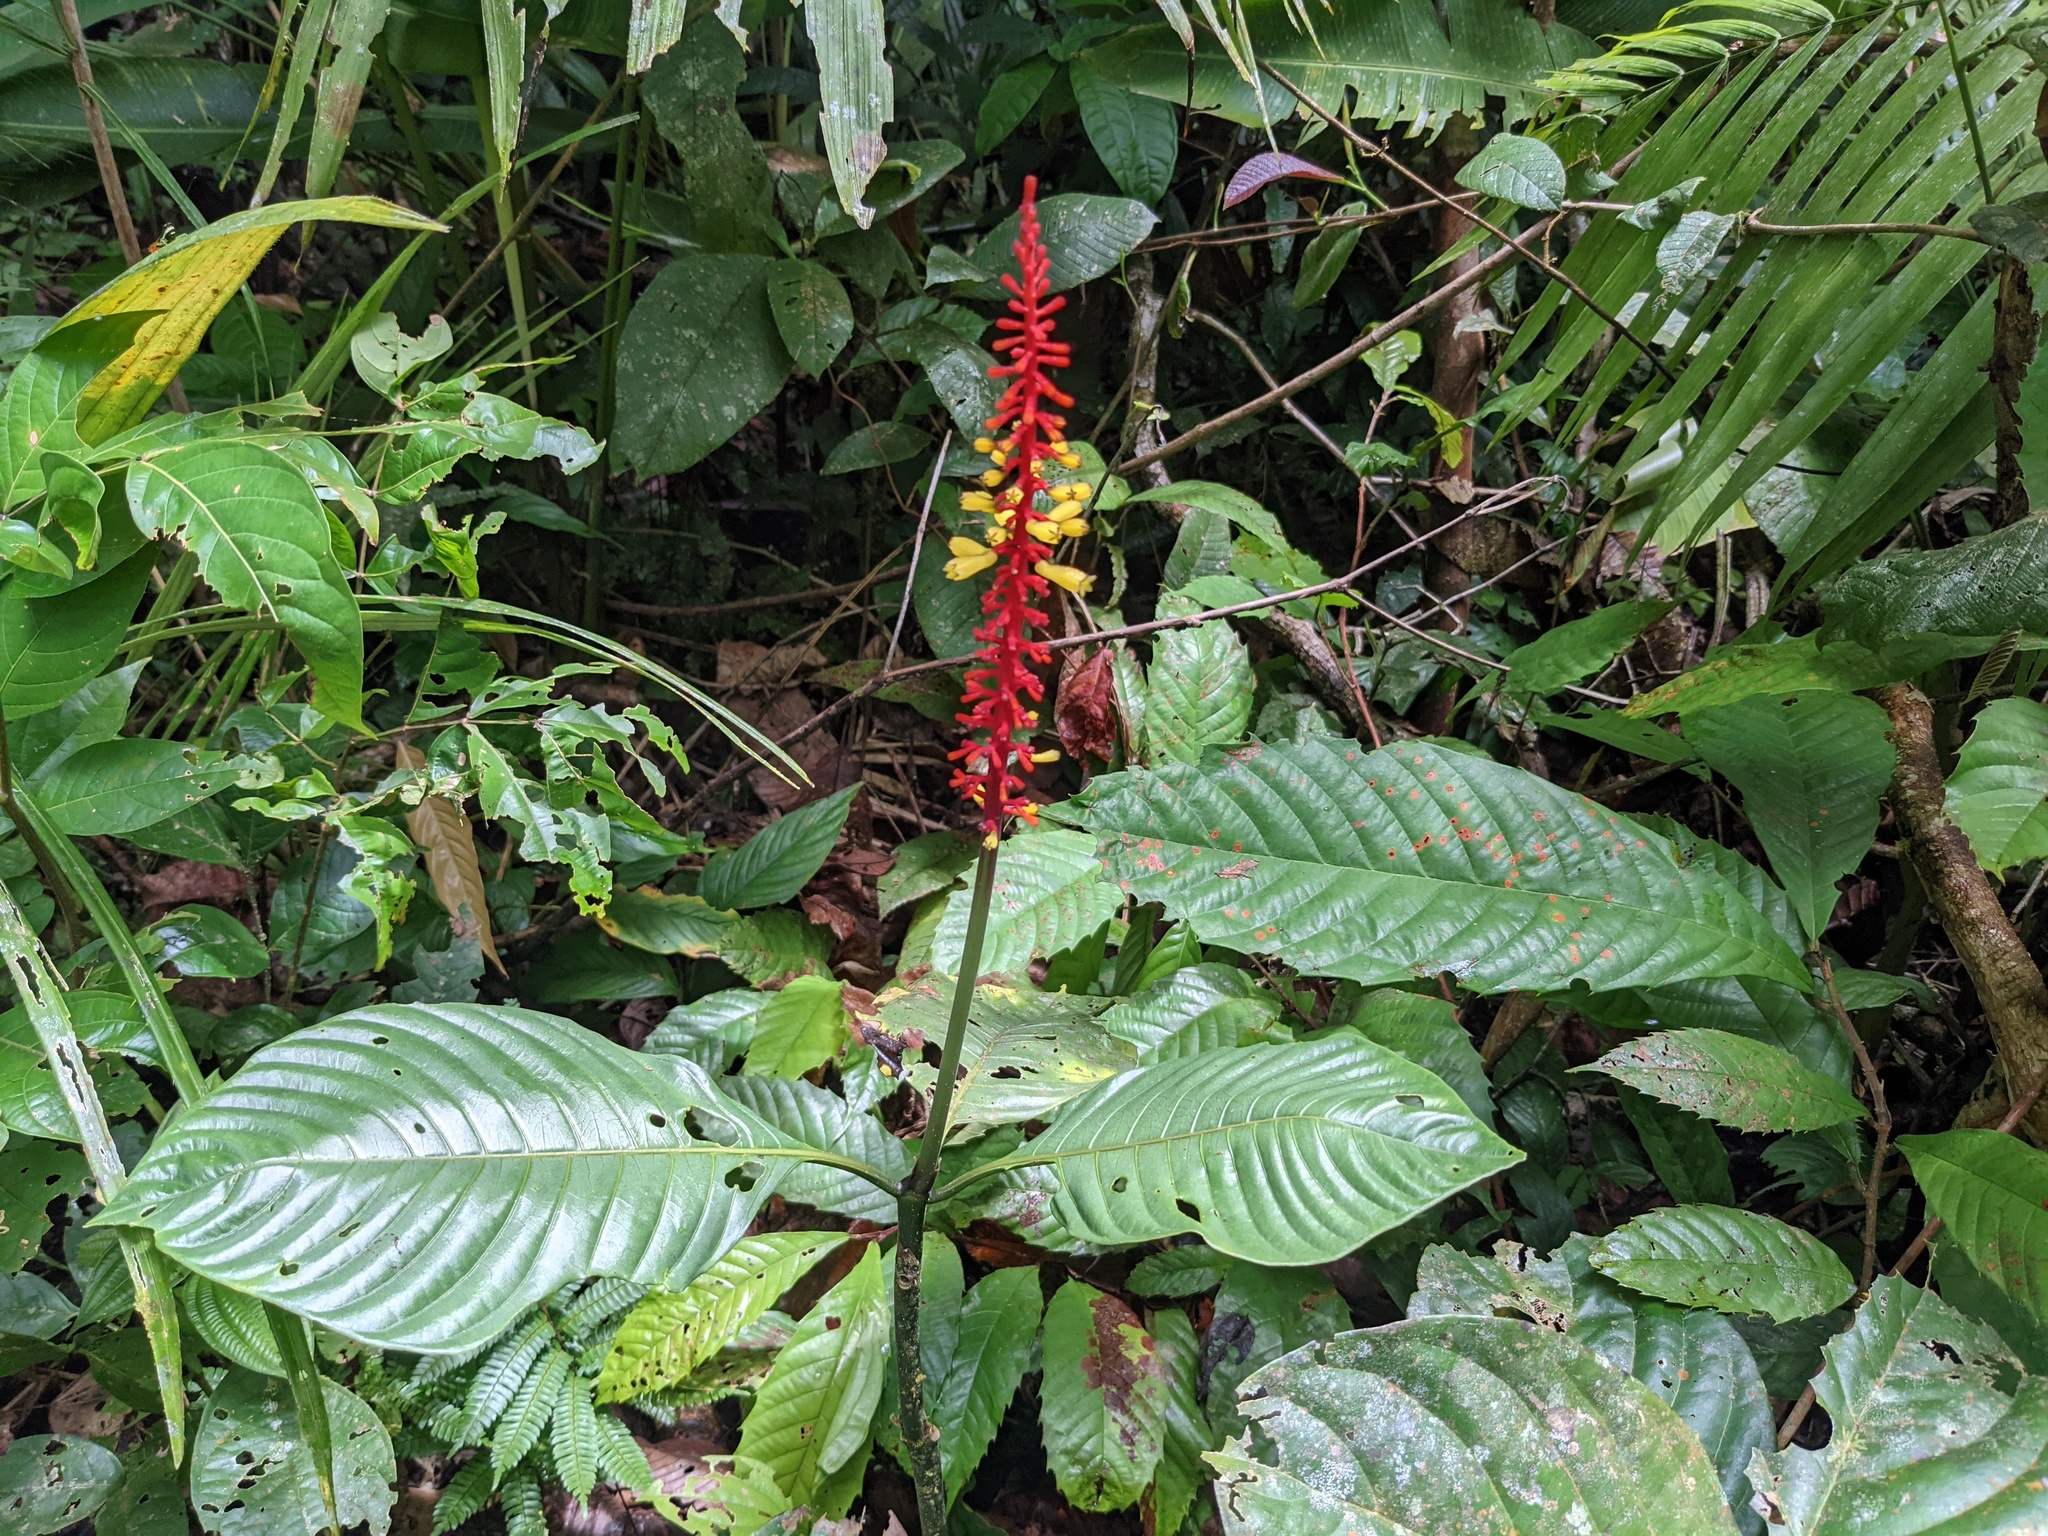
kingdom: Plantae
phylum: Tracheophyta
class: Magnoliopsida
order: Gentianales
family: Rubiaceae
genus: Palicourea
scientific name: Palicourea subspicata
